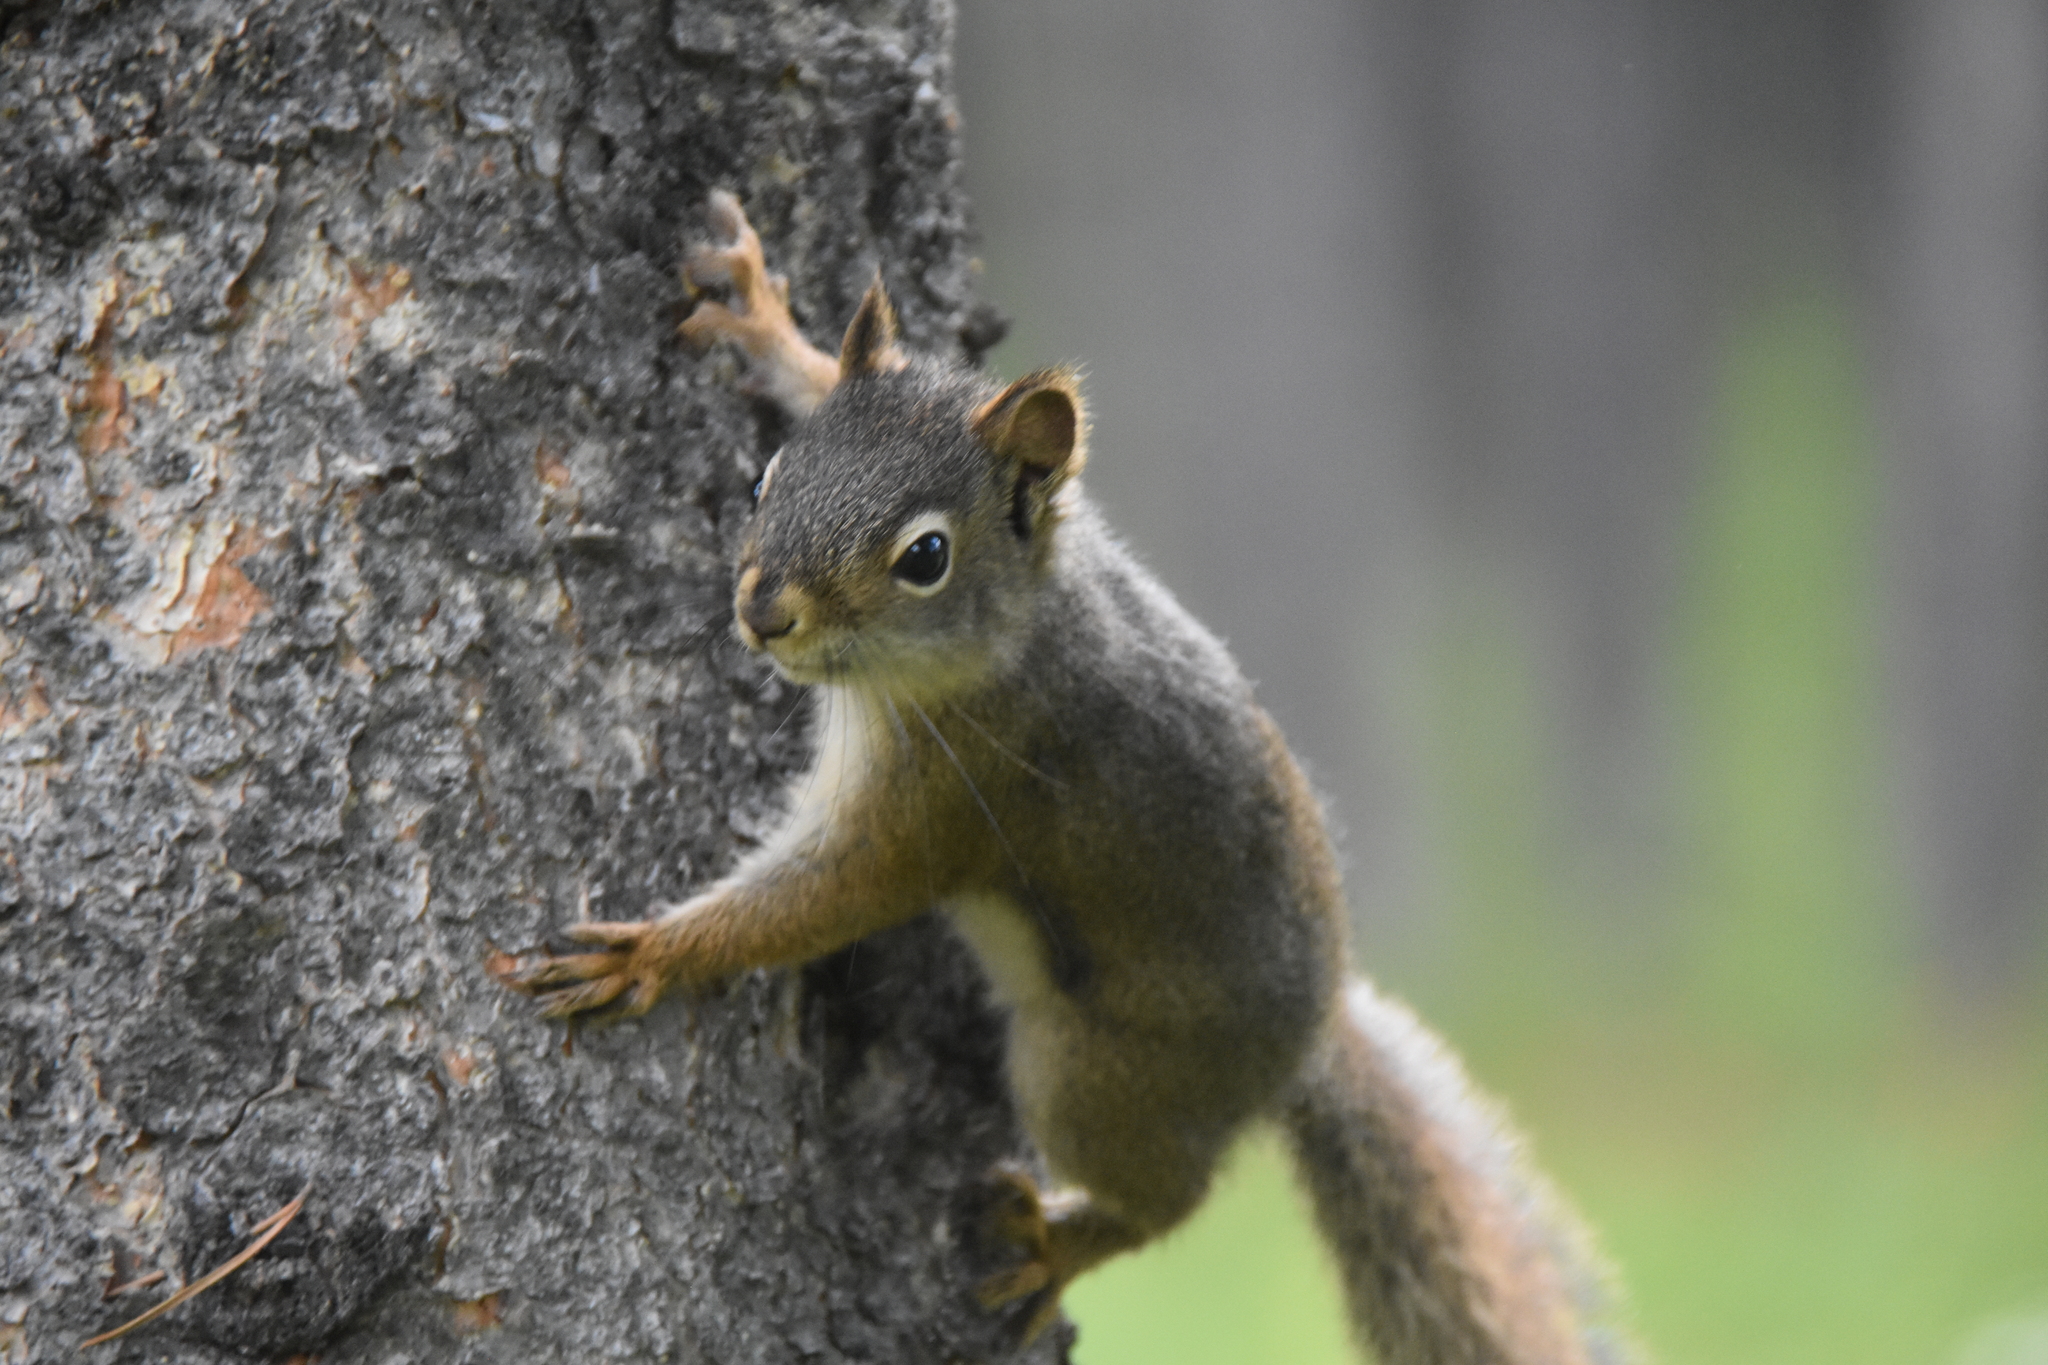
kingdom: Animalia
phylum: Chordata
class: Mammalia
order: Rodentia
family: Sciuridae
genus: Tamiasciurus
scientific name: Tamiasciurus hudsonicus
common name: Red squirrel
